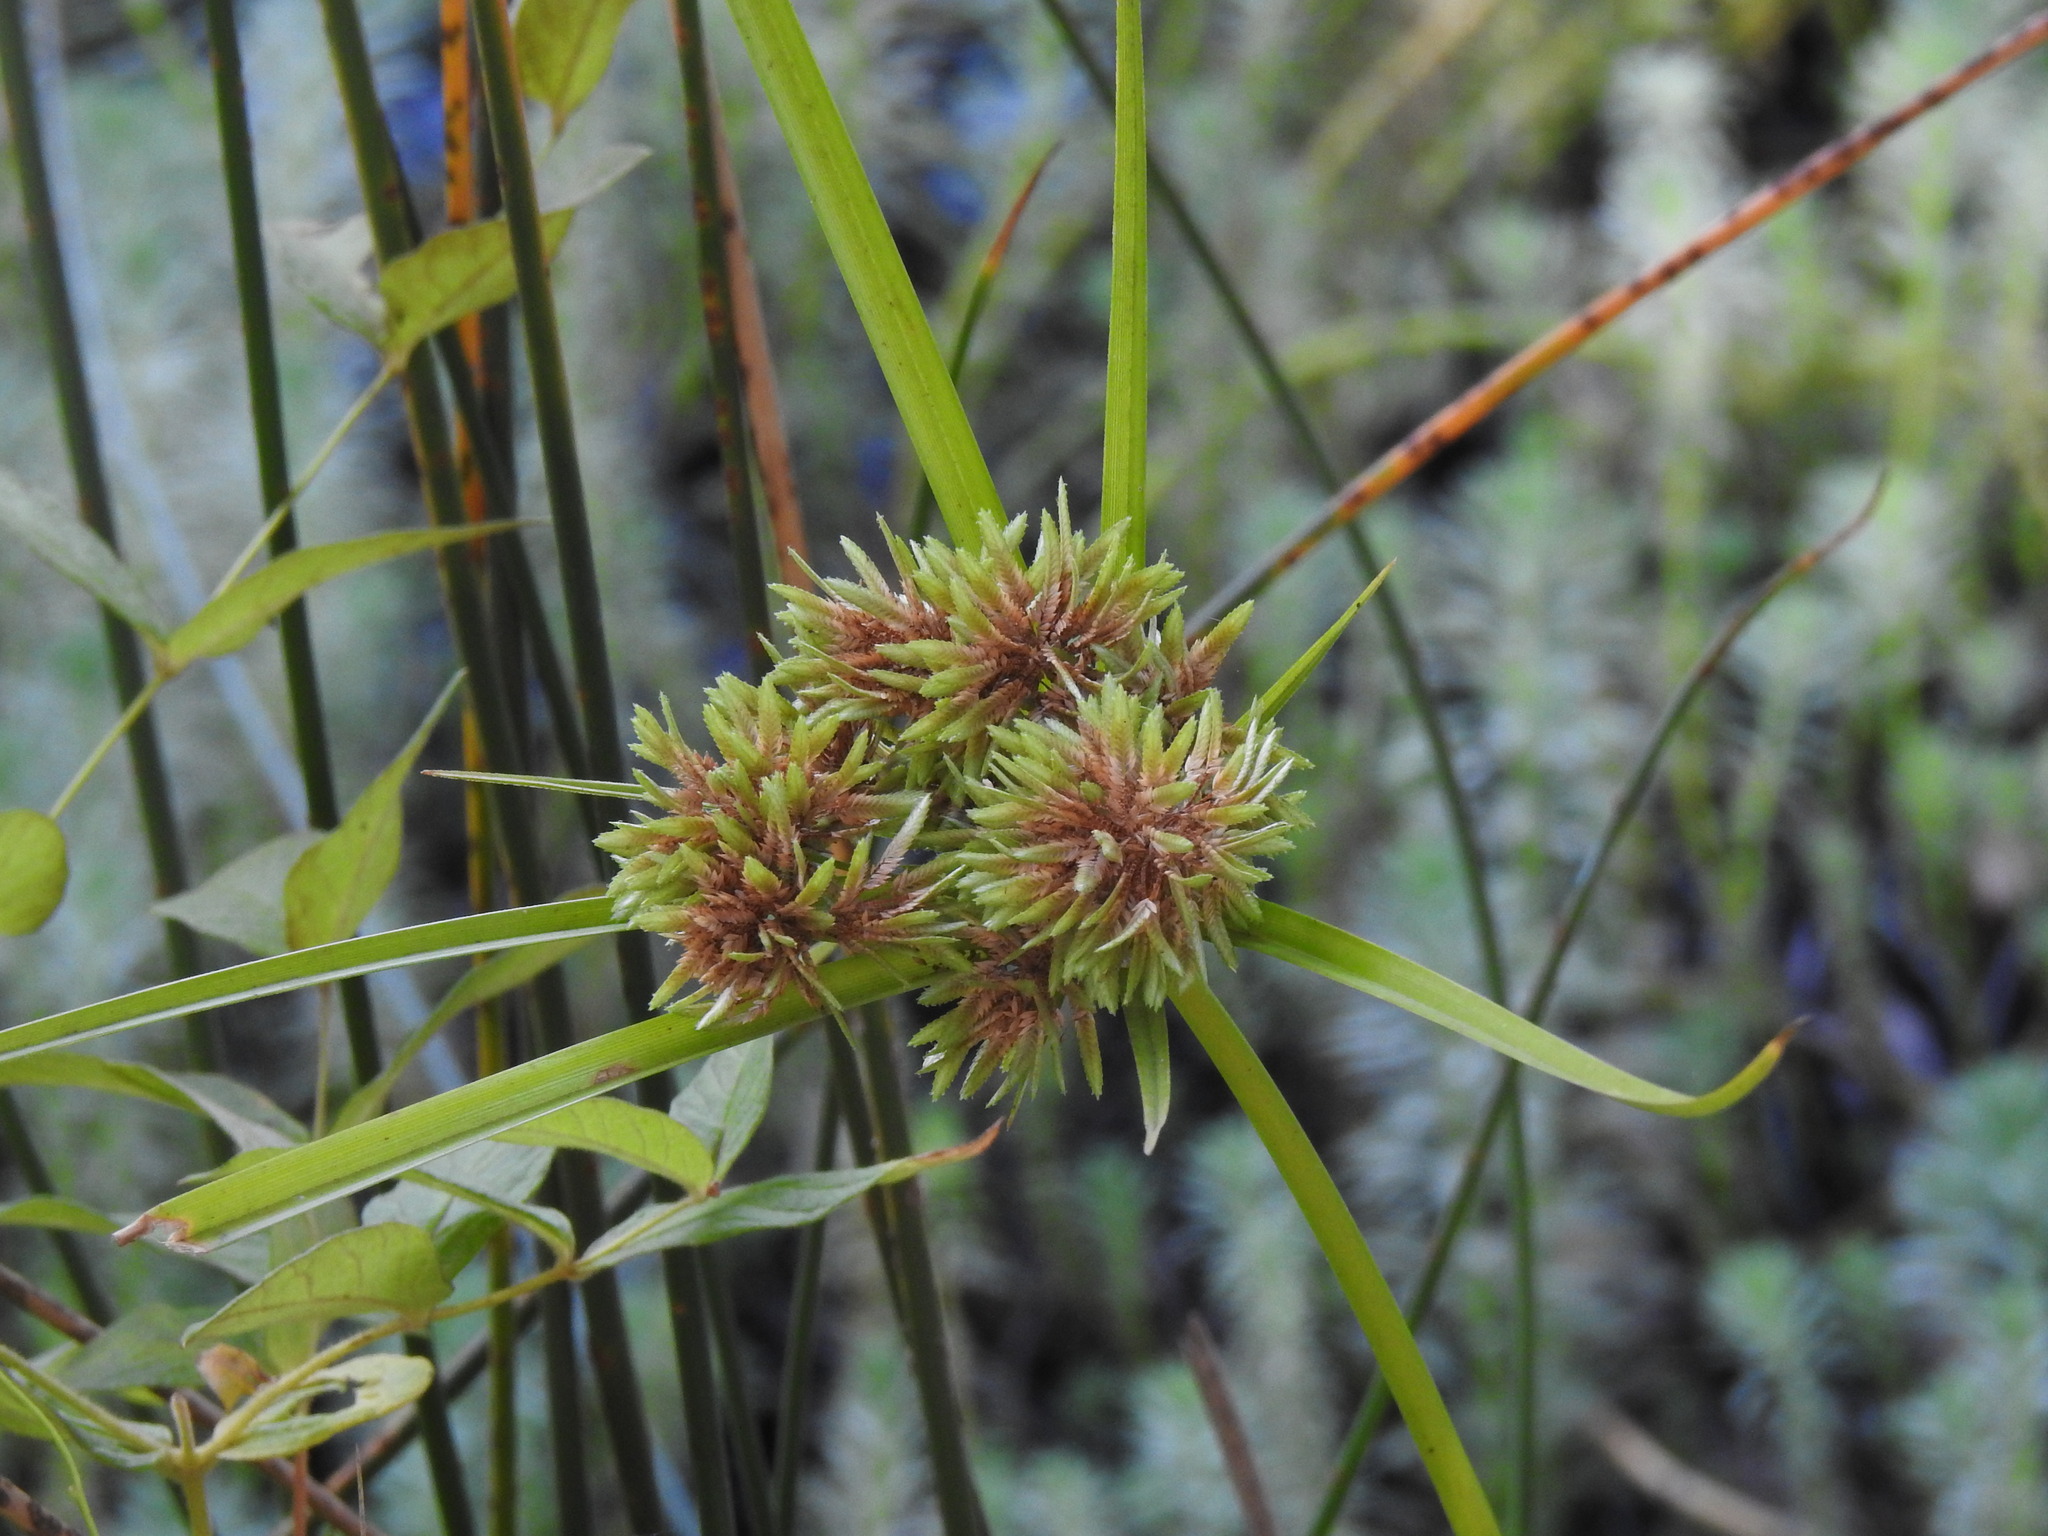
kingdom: Plantae
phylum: Tracheophyta
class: Liliopsida
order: Poales
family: Cyperaceae
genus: Cyperus
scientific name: Cyperus eragrostis
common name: Tall flatsedge
